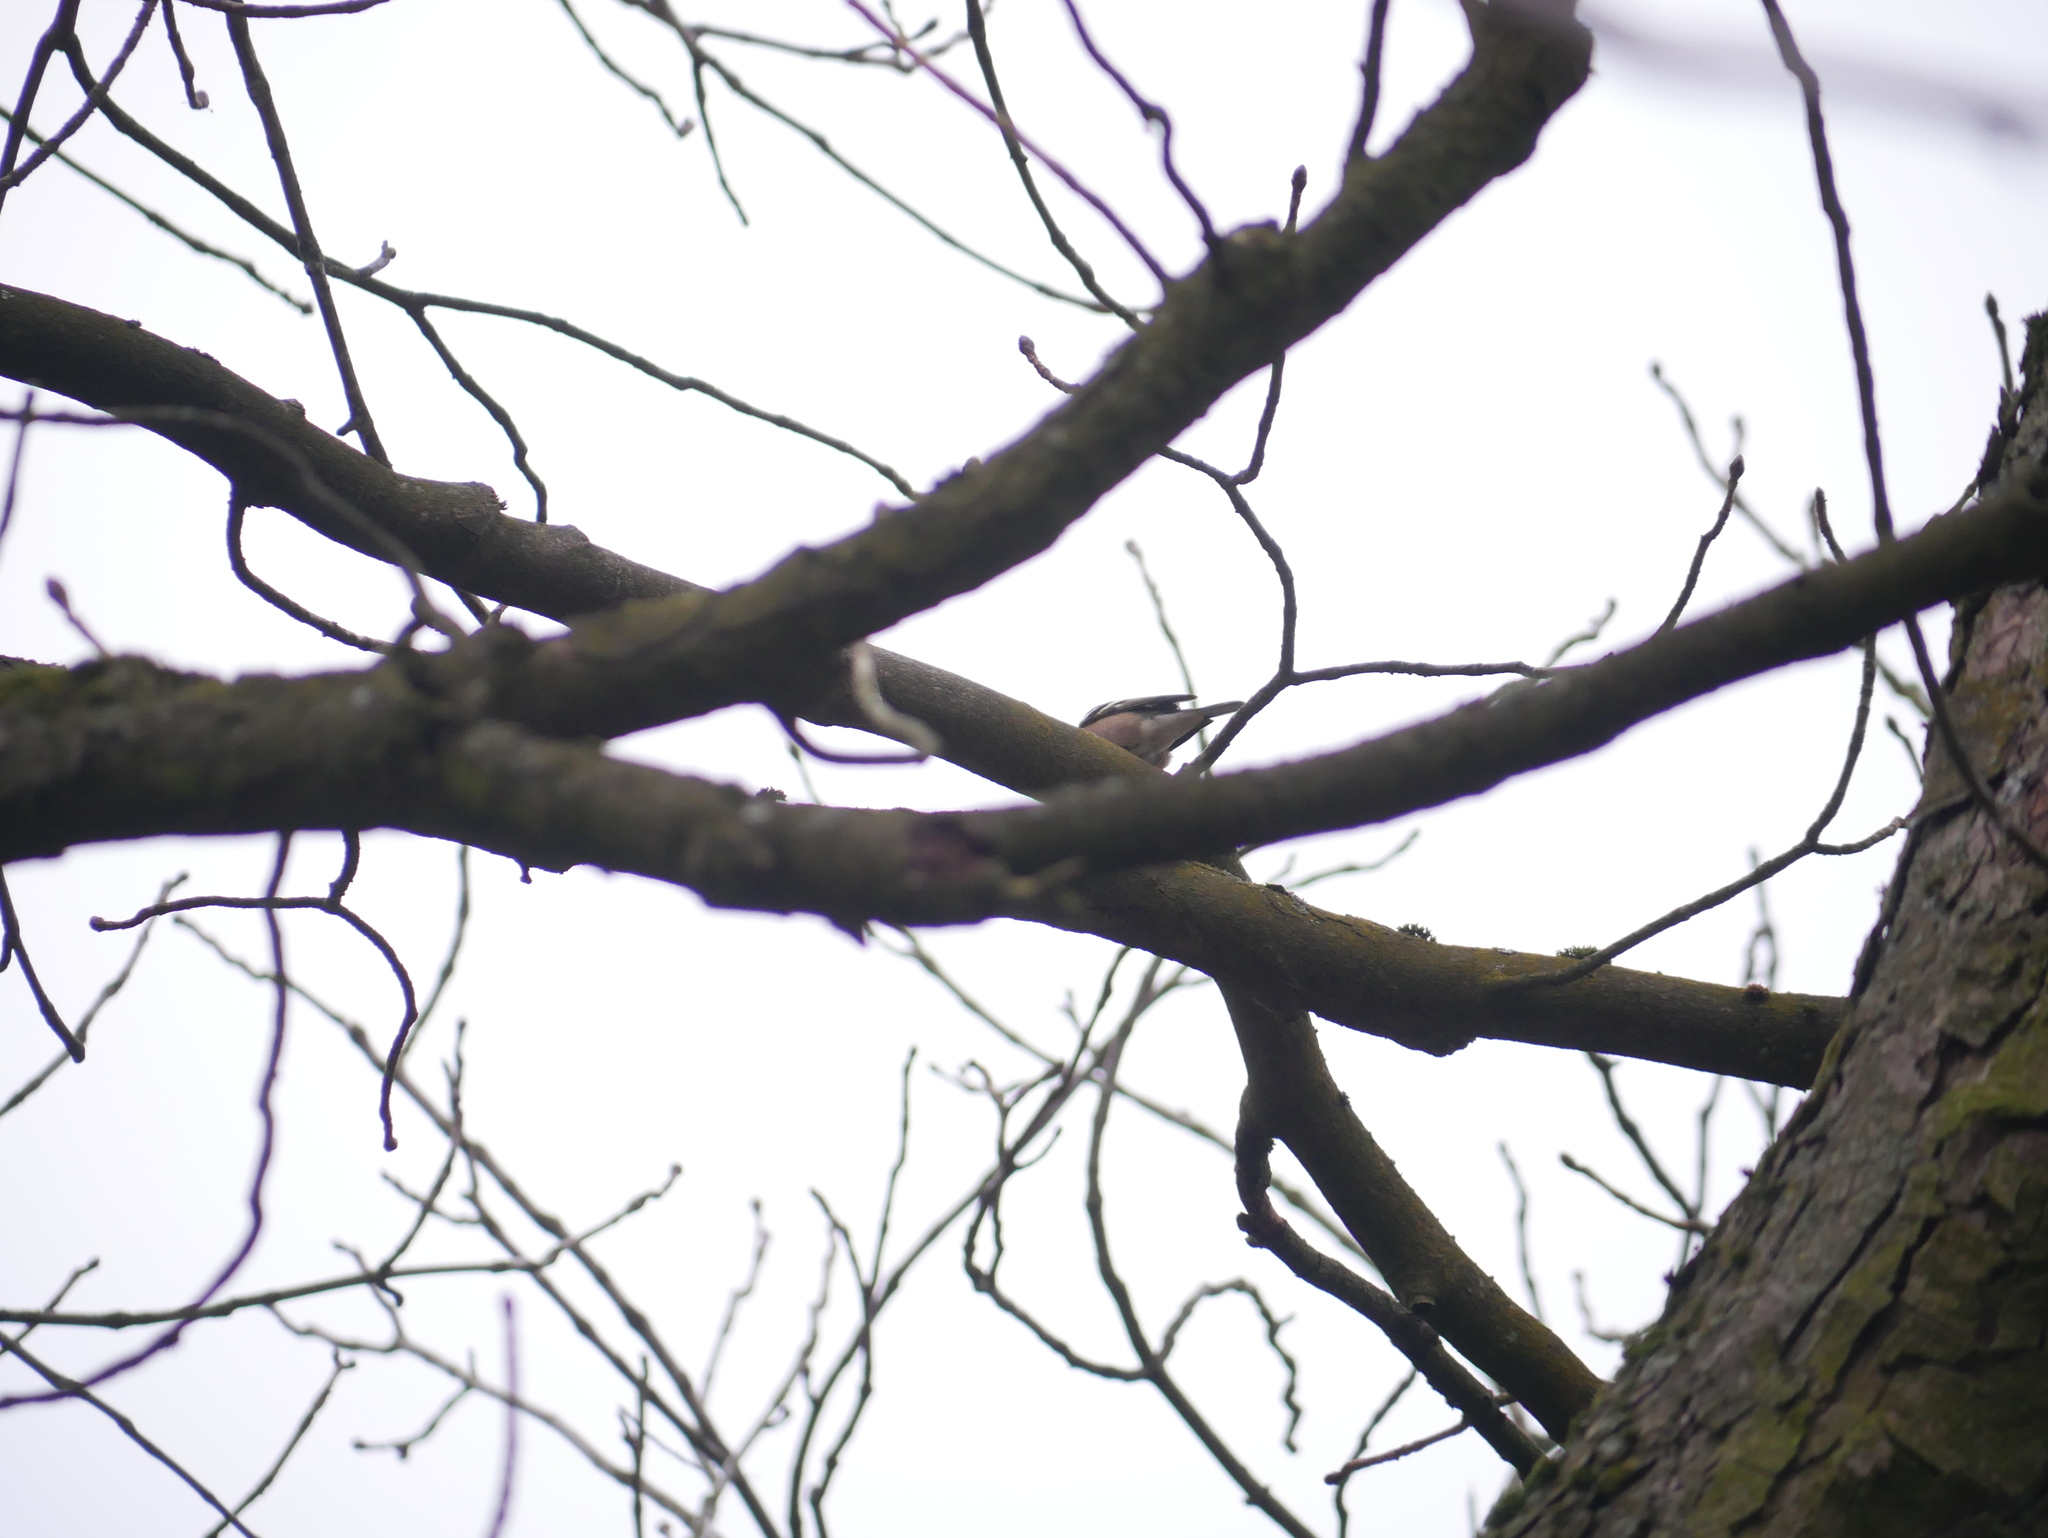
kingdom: Animalia
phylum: Chordata
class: Aves
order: Passeriformes
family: Fringillidae
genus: Fringilla
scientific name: Fringilla coelebs
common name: Common chaffinch
